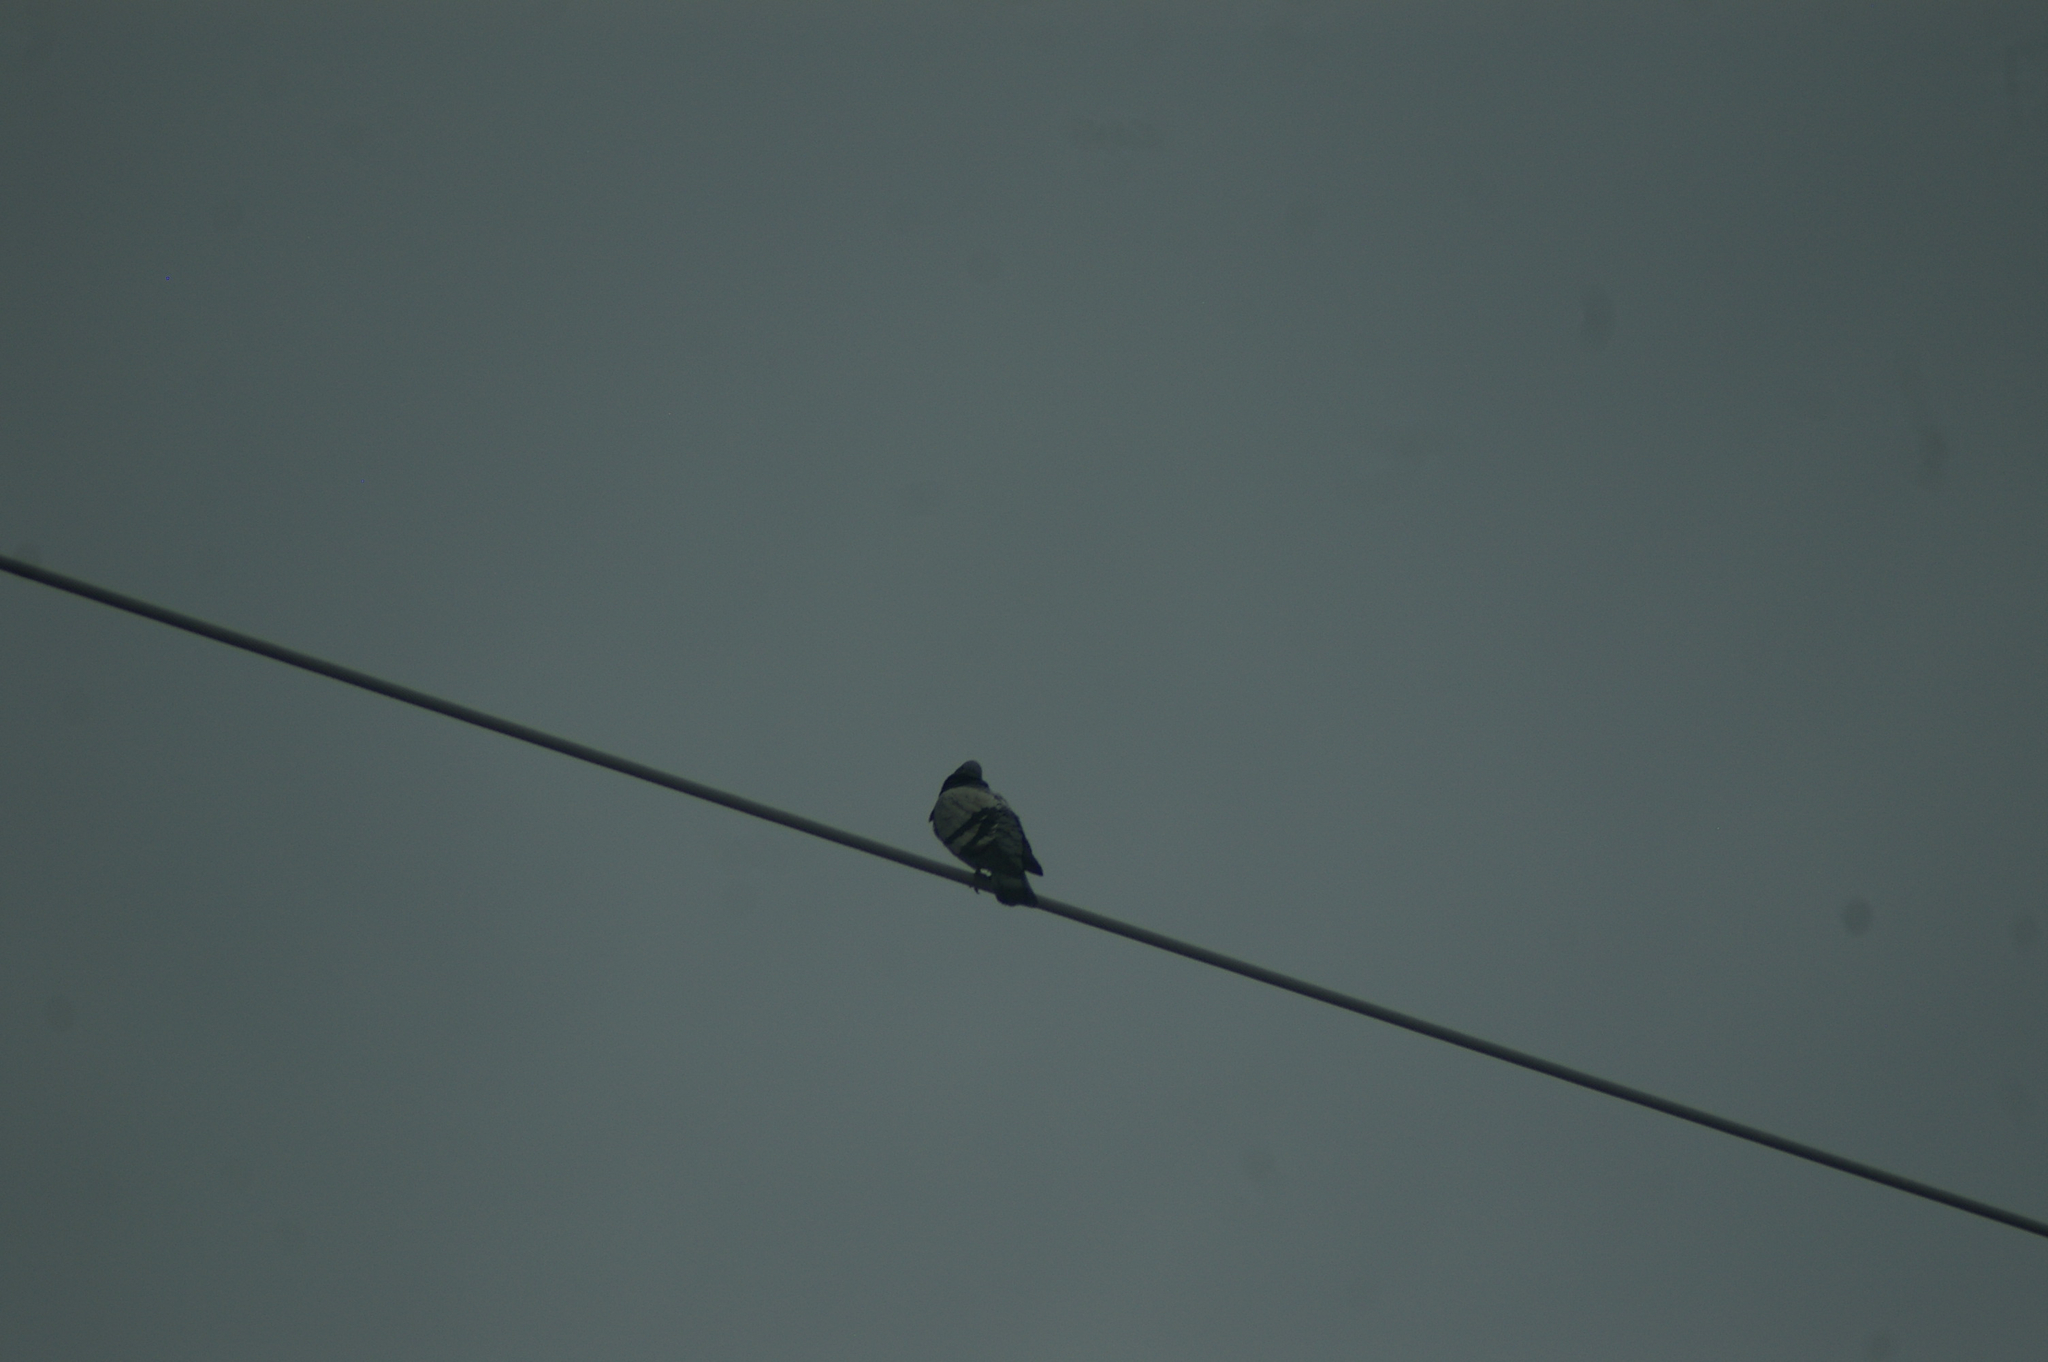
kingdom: Animalia
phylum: Chordata
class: Aves
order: Columbiformes
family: Columbidae
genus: Columba
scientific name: Columba livia
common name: Rock pigeon
